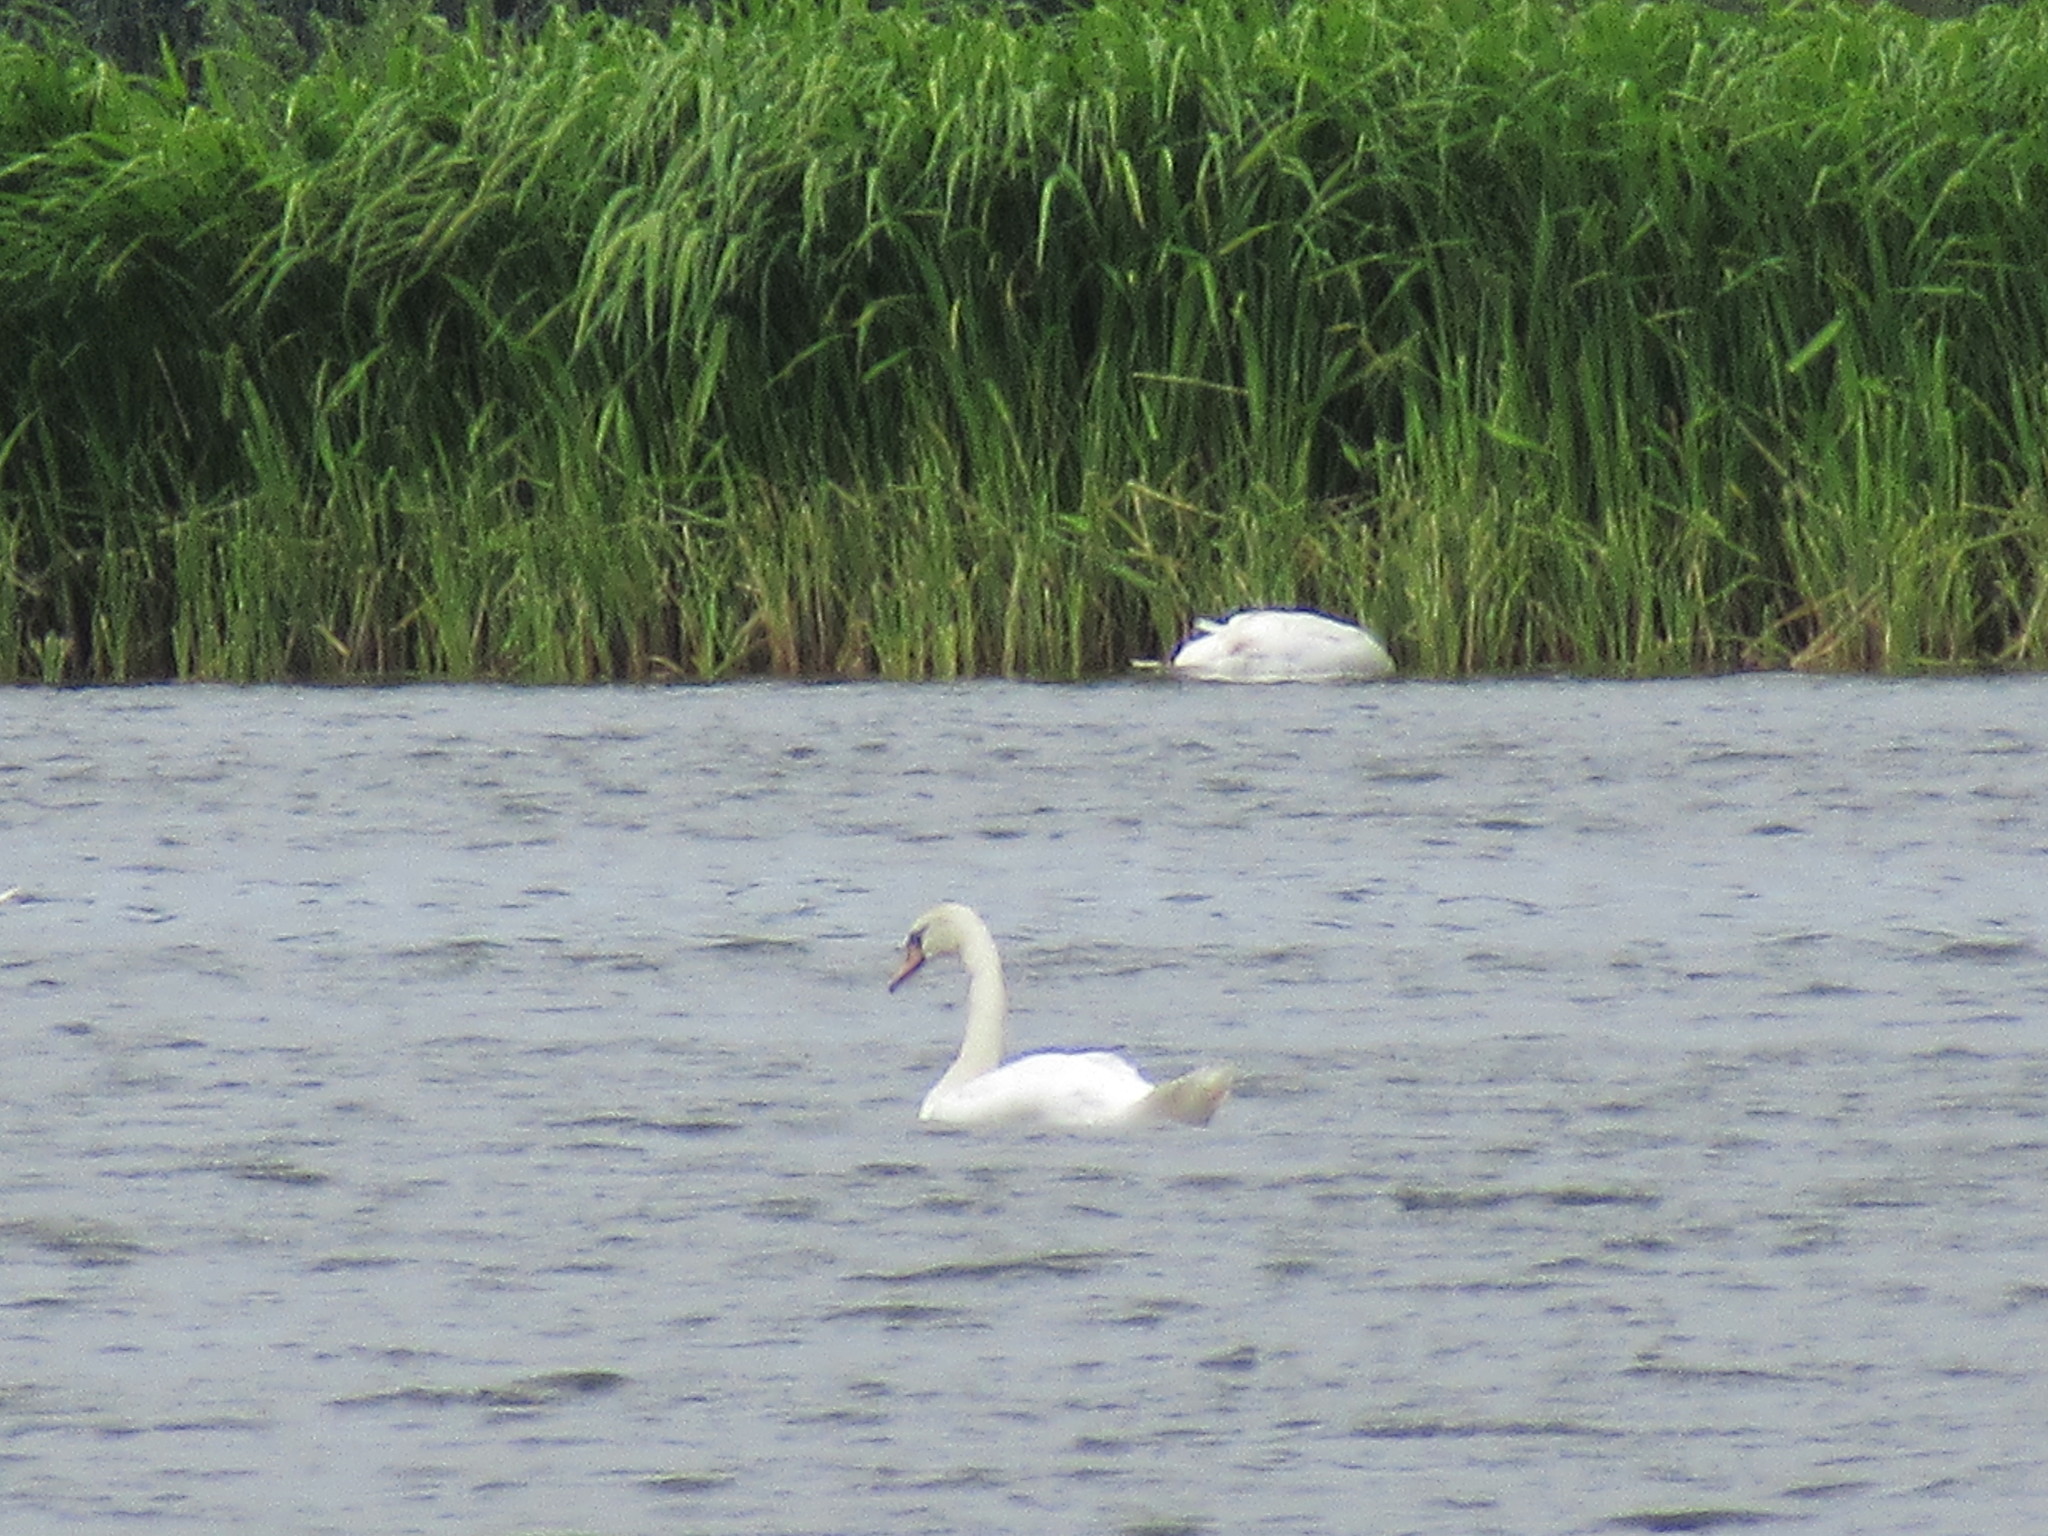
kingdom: Animalia
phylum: Chordata
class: Aves
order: Anseriformes
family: Anatidae
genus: Cygnus
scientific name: Cygnus olor
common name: Mute swan
